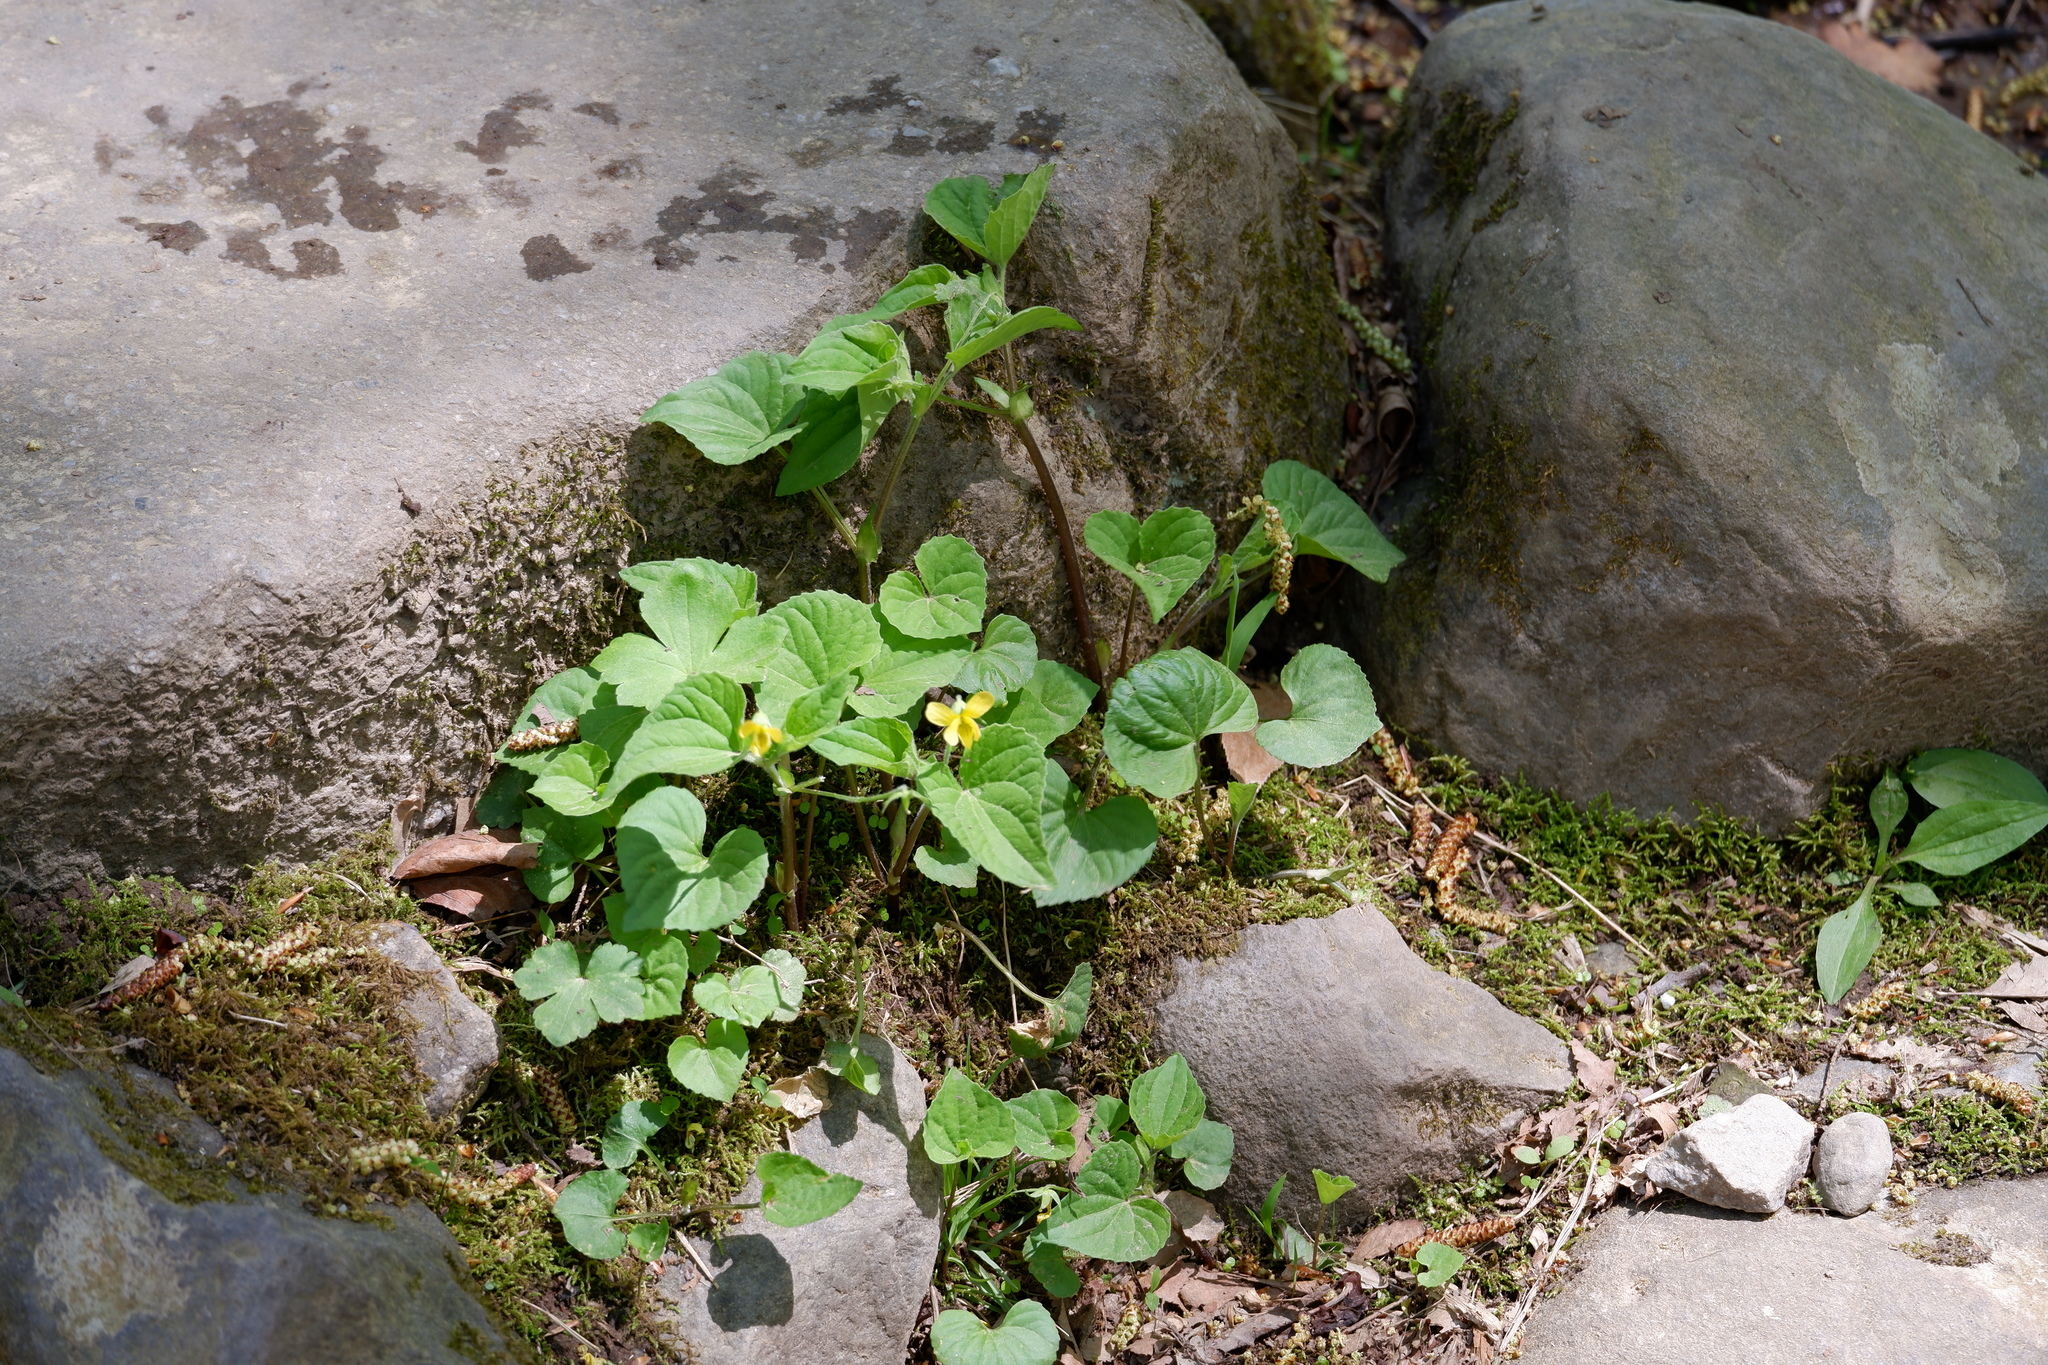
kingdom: Plantae
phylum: Tracheophyta
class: Magnoliopsida
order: Malpighiales
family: Violaceae
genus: Viola
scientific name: Viola eriocarpa
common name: Smooth yellow violet
